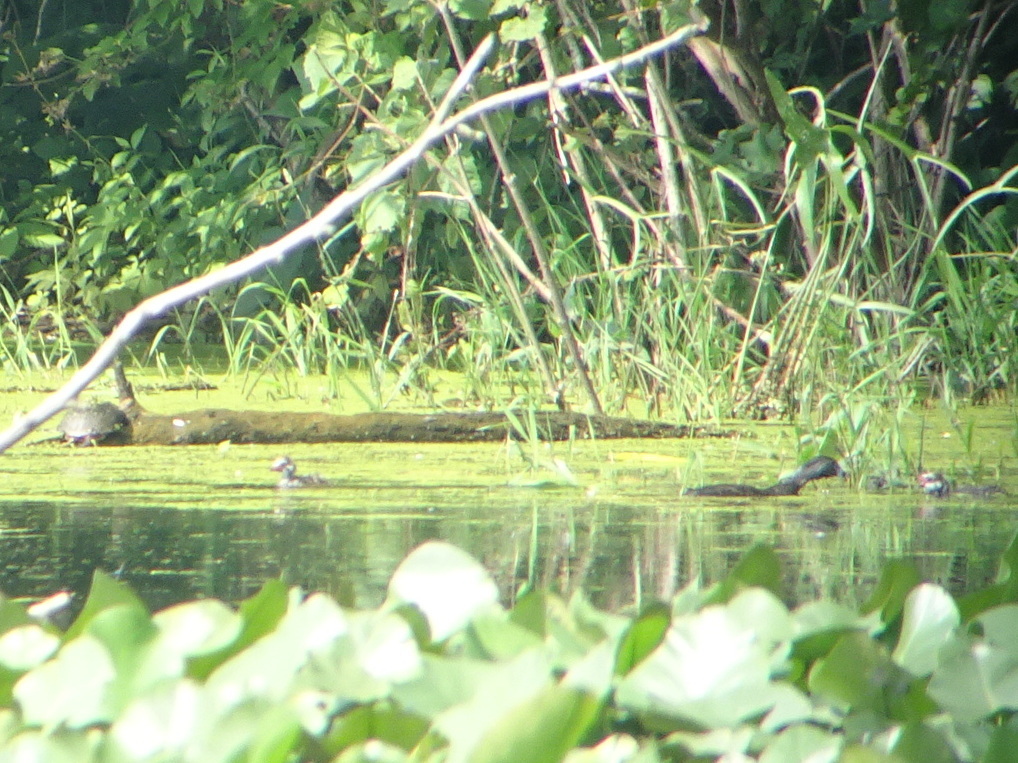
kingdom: Animalia
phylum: Chordata
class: Aves
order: Podicipediformes
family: Podicipedidae
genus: Podilymbus
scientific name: Podilymbus podiceps
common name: Pied-billed grebe
